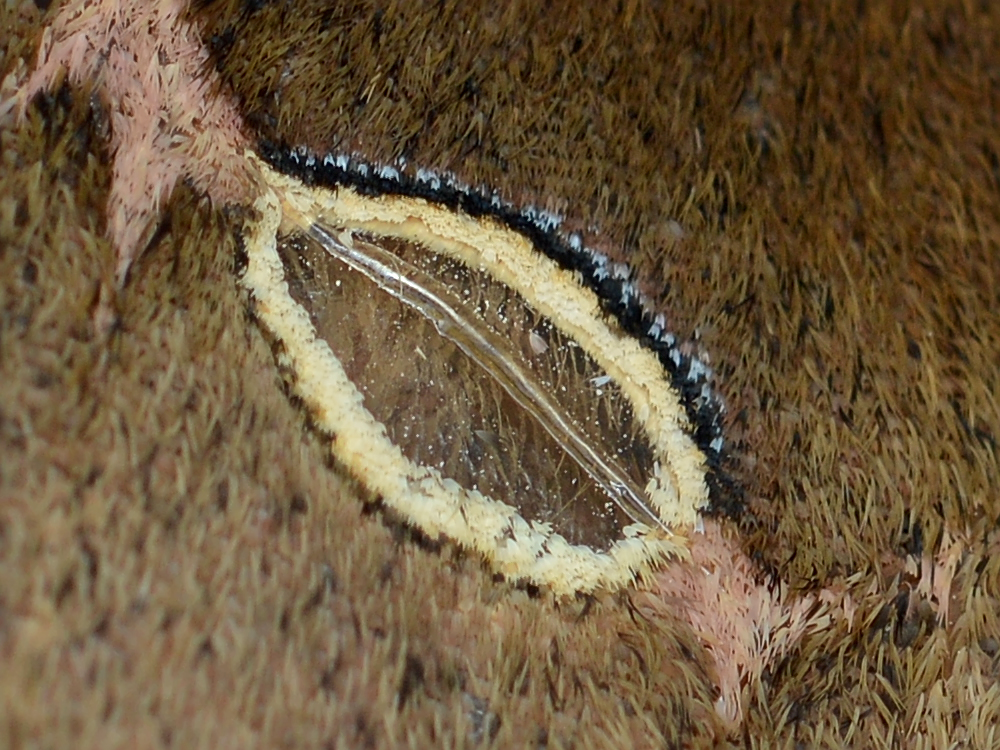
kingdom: Animalia
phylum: Arthropoda
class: Insecta
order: Lepidoptera
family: Saturniidae
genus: Antheraea
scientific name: Antheraea polyphemus
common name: Polyphemus moth
